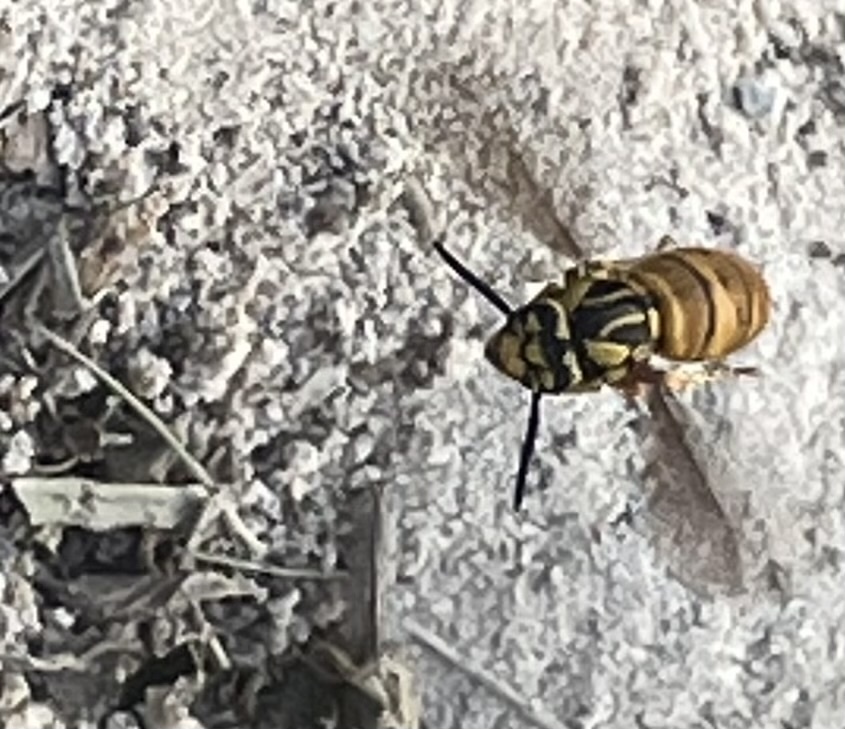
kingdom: Animalia
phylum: Arthropoda
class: Insecta
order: Hymenoptera
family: Vespidae
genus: Vespula
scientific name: Vespula squamosa
